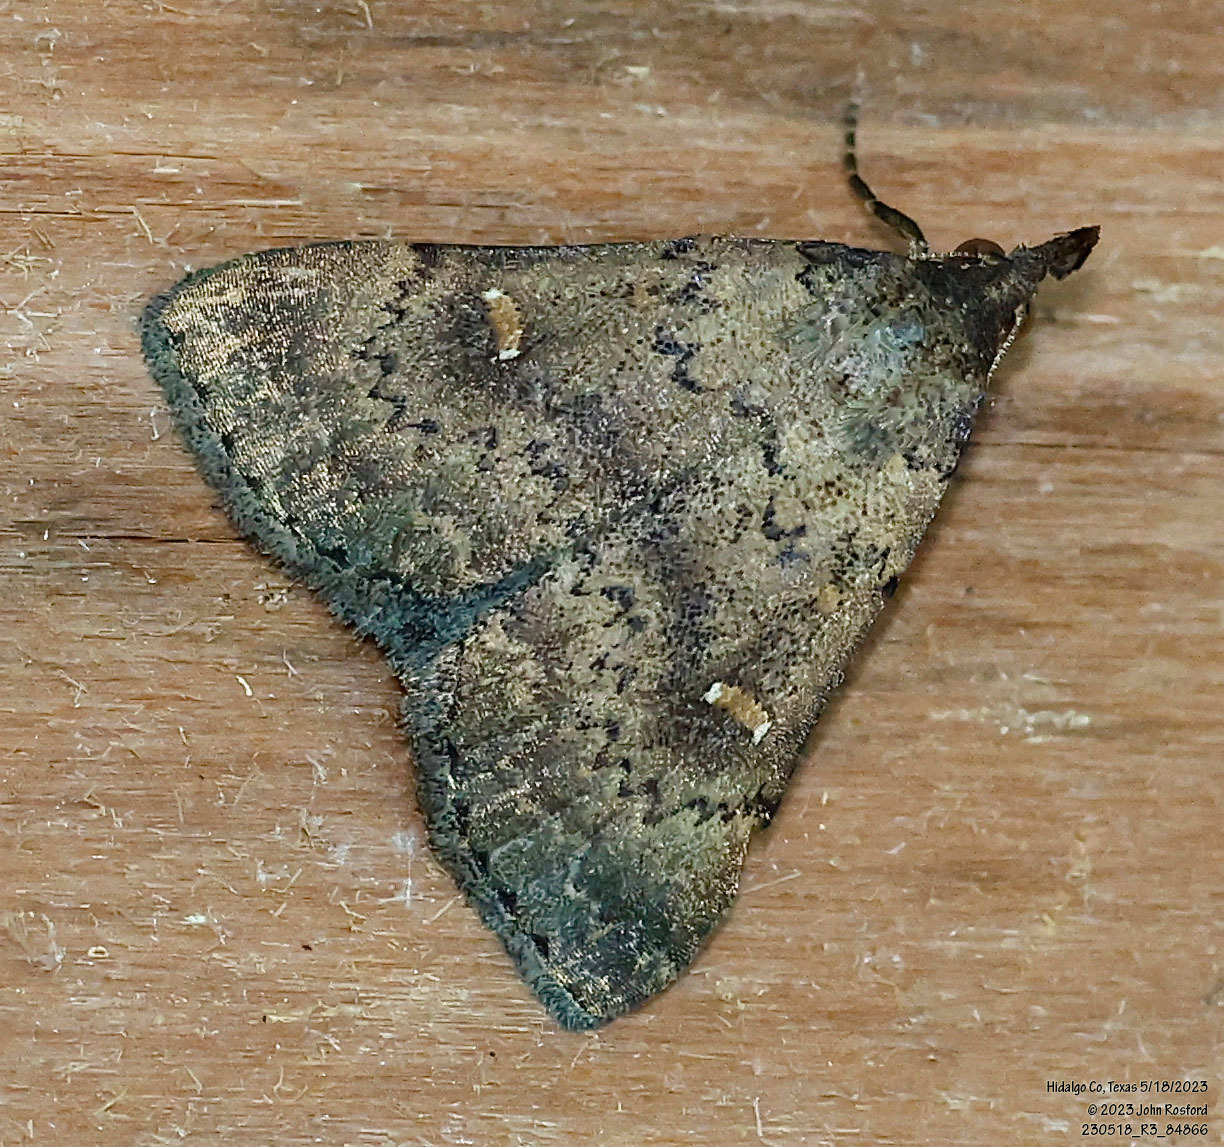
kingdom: Animalia
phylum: Arthropoda
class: Insecta
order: Lepidoptera
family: Erebidae
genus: Hypenula
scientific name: Hypenula cacuminalis
